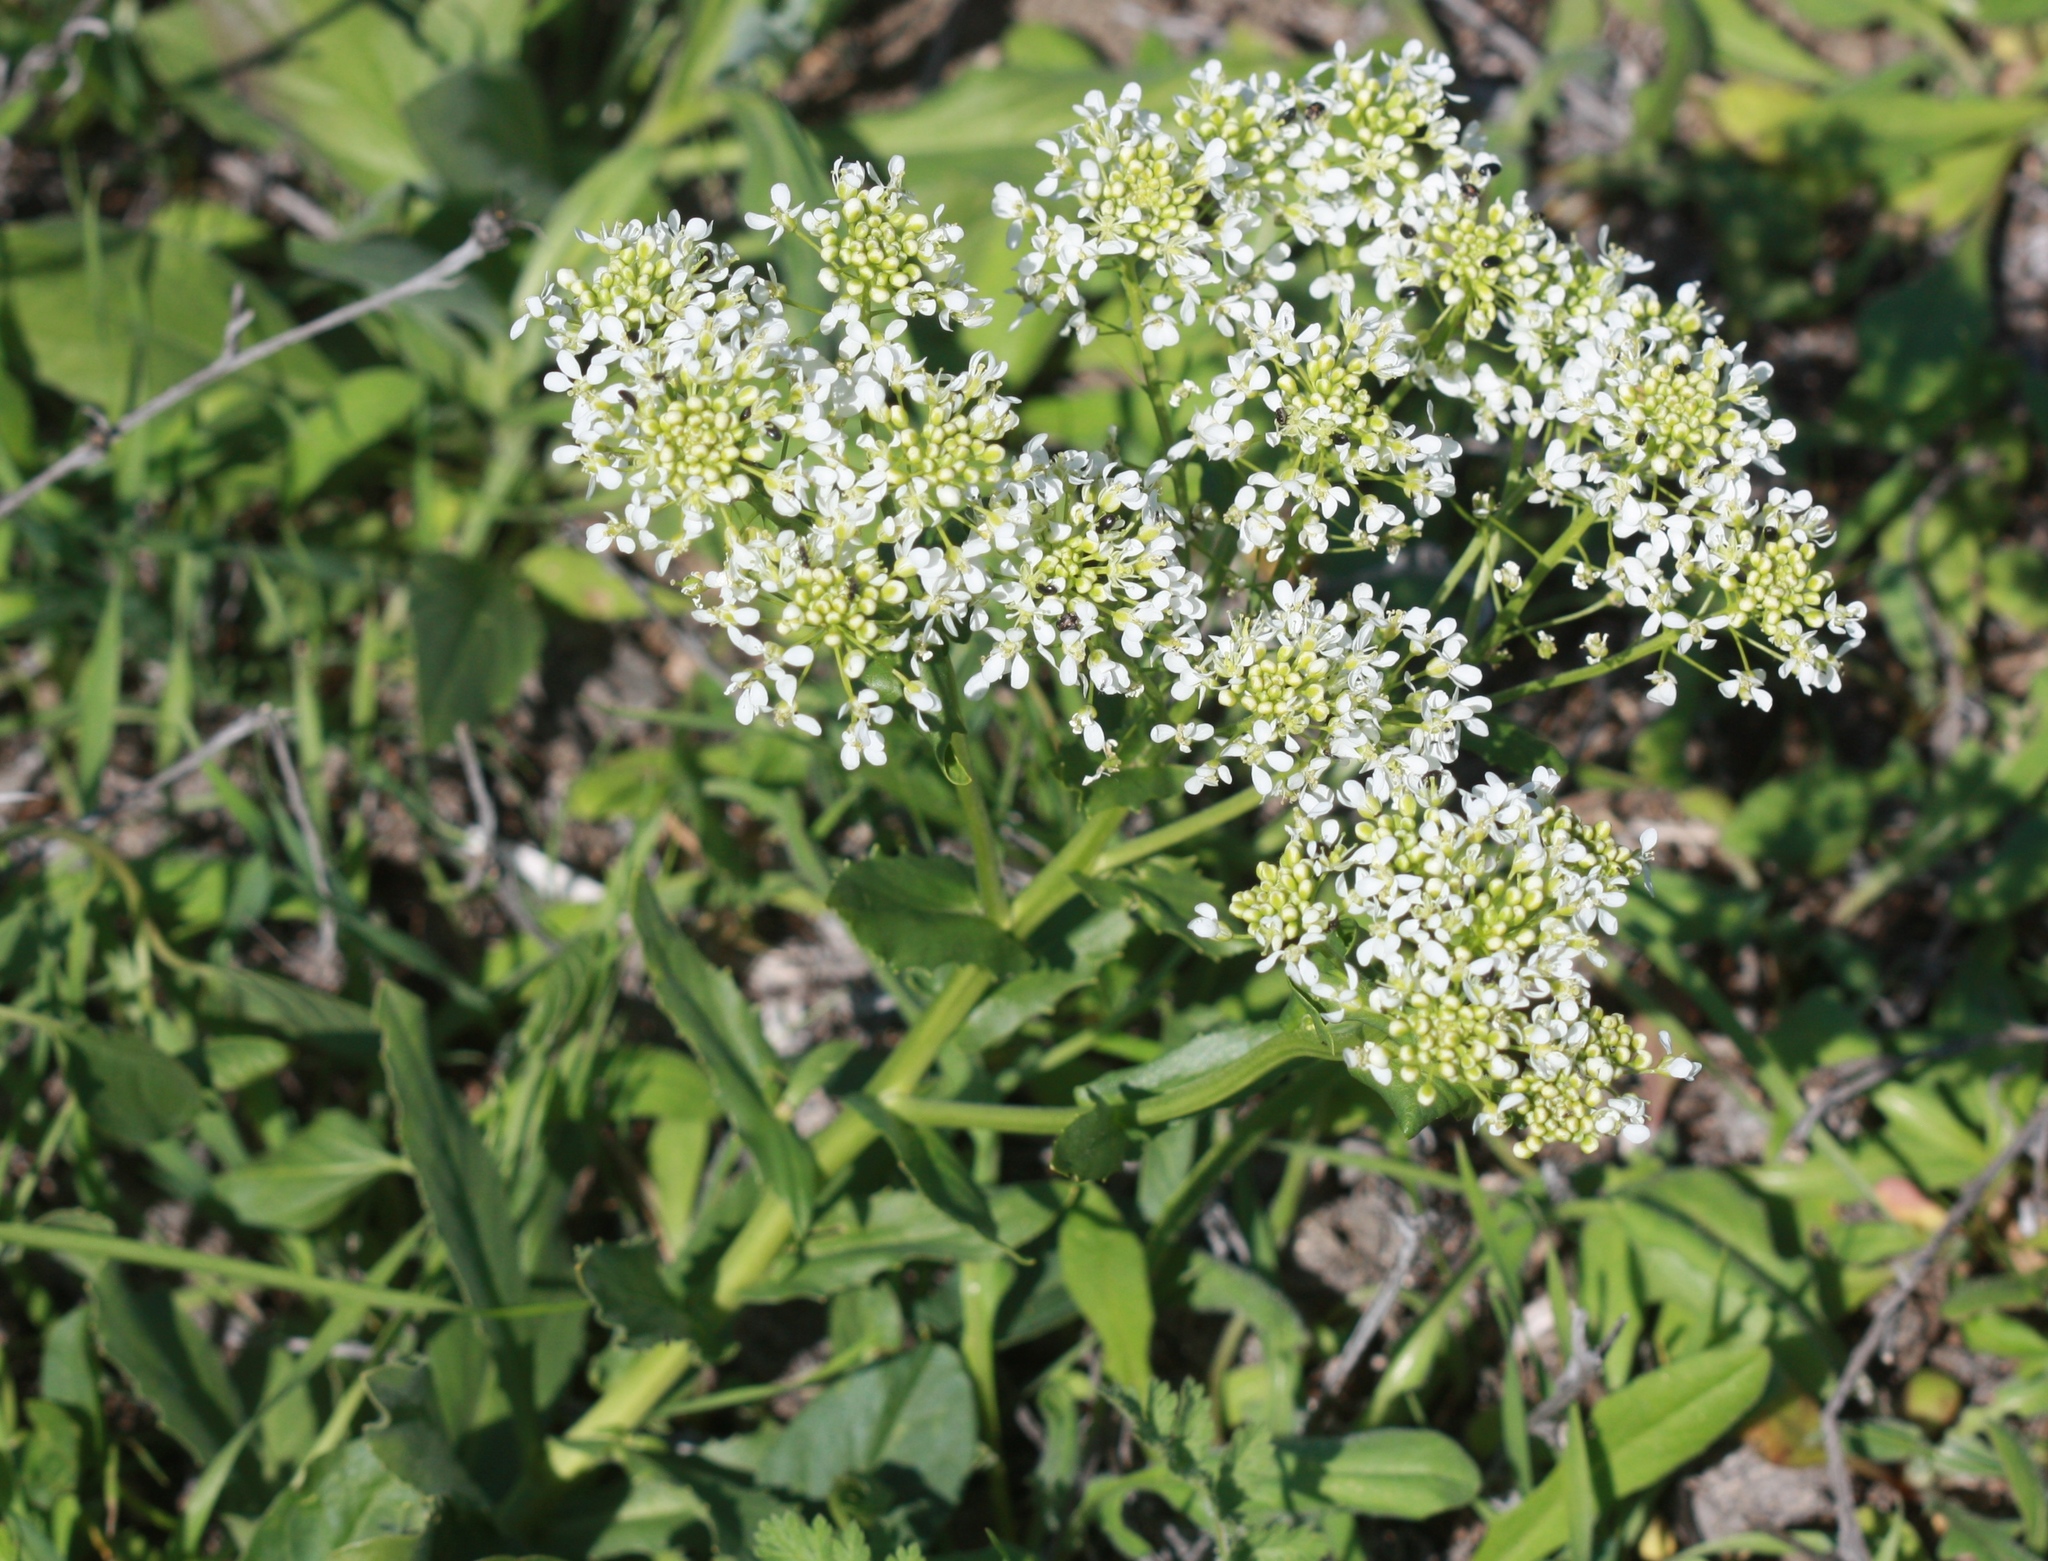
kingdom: Plantae
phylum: Tracheophyta
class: Magnoliopsida
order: Brassicales
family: Brassicaceae
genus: Lepidium
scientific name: Lepidium latifolium
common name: Dittander
